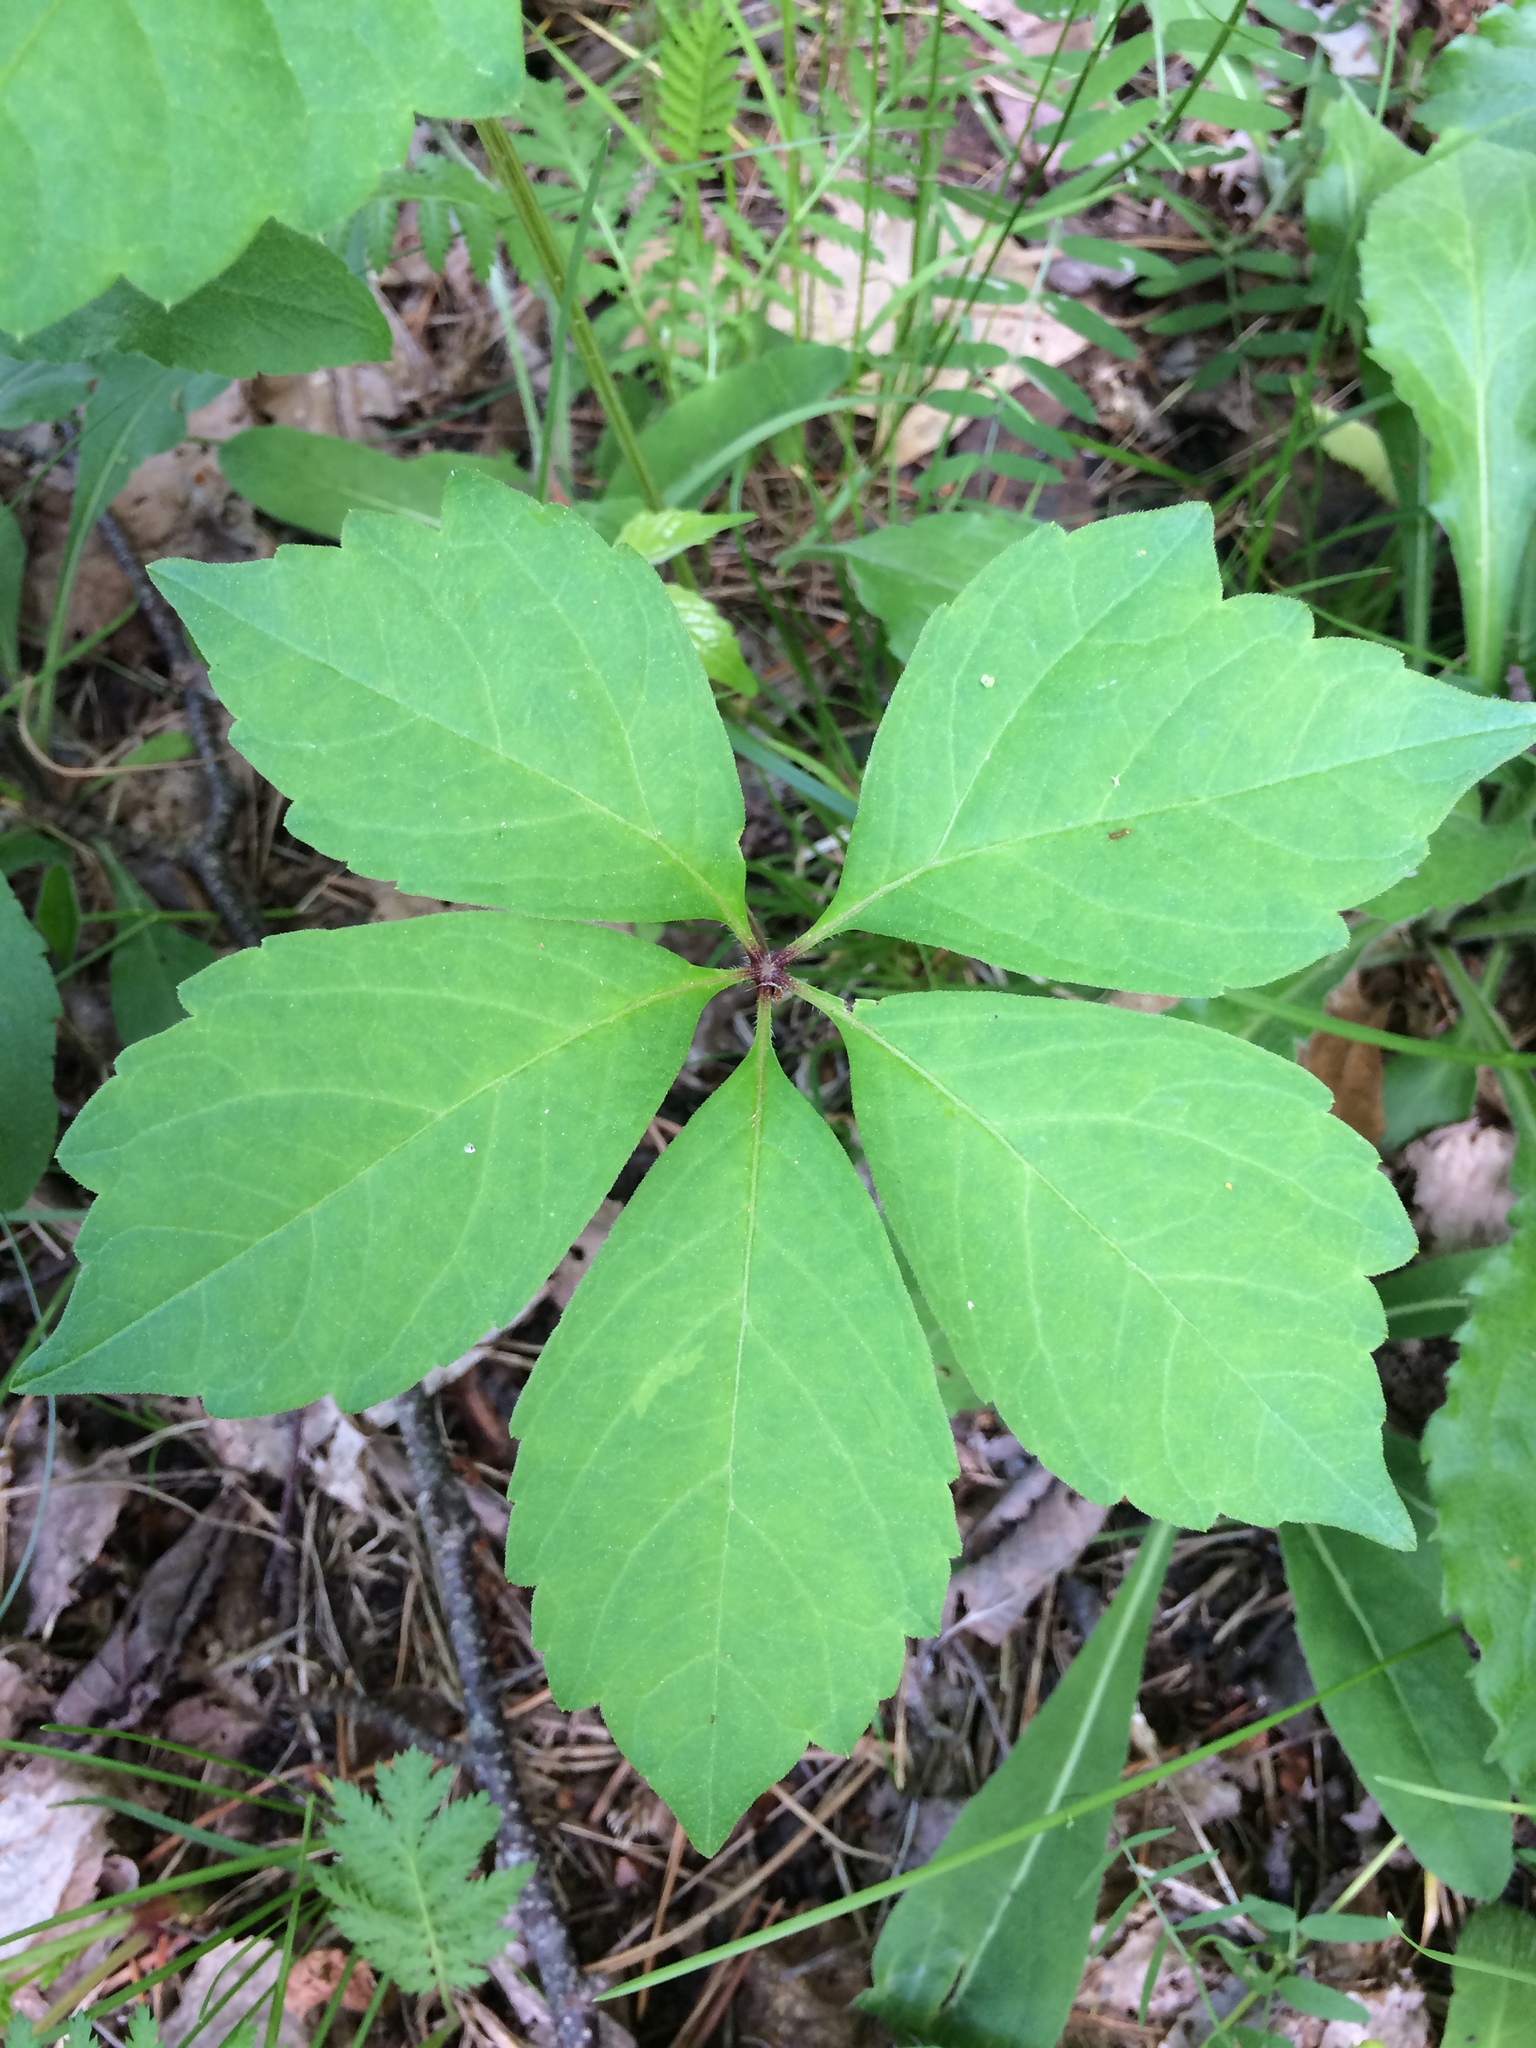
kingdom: Plantae
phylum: Tracheophyta
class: Magnoliopsida
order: Vitales
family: Vitaceae
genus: Parthenocissus
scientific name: Parthenocissus quinquefolia
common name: Virginia-creeper
